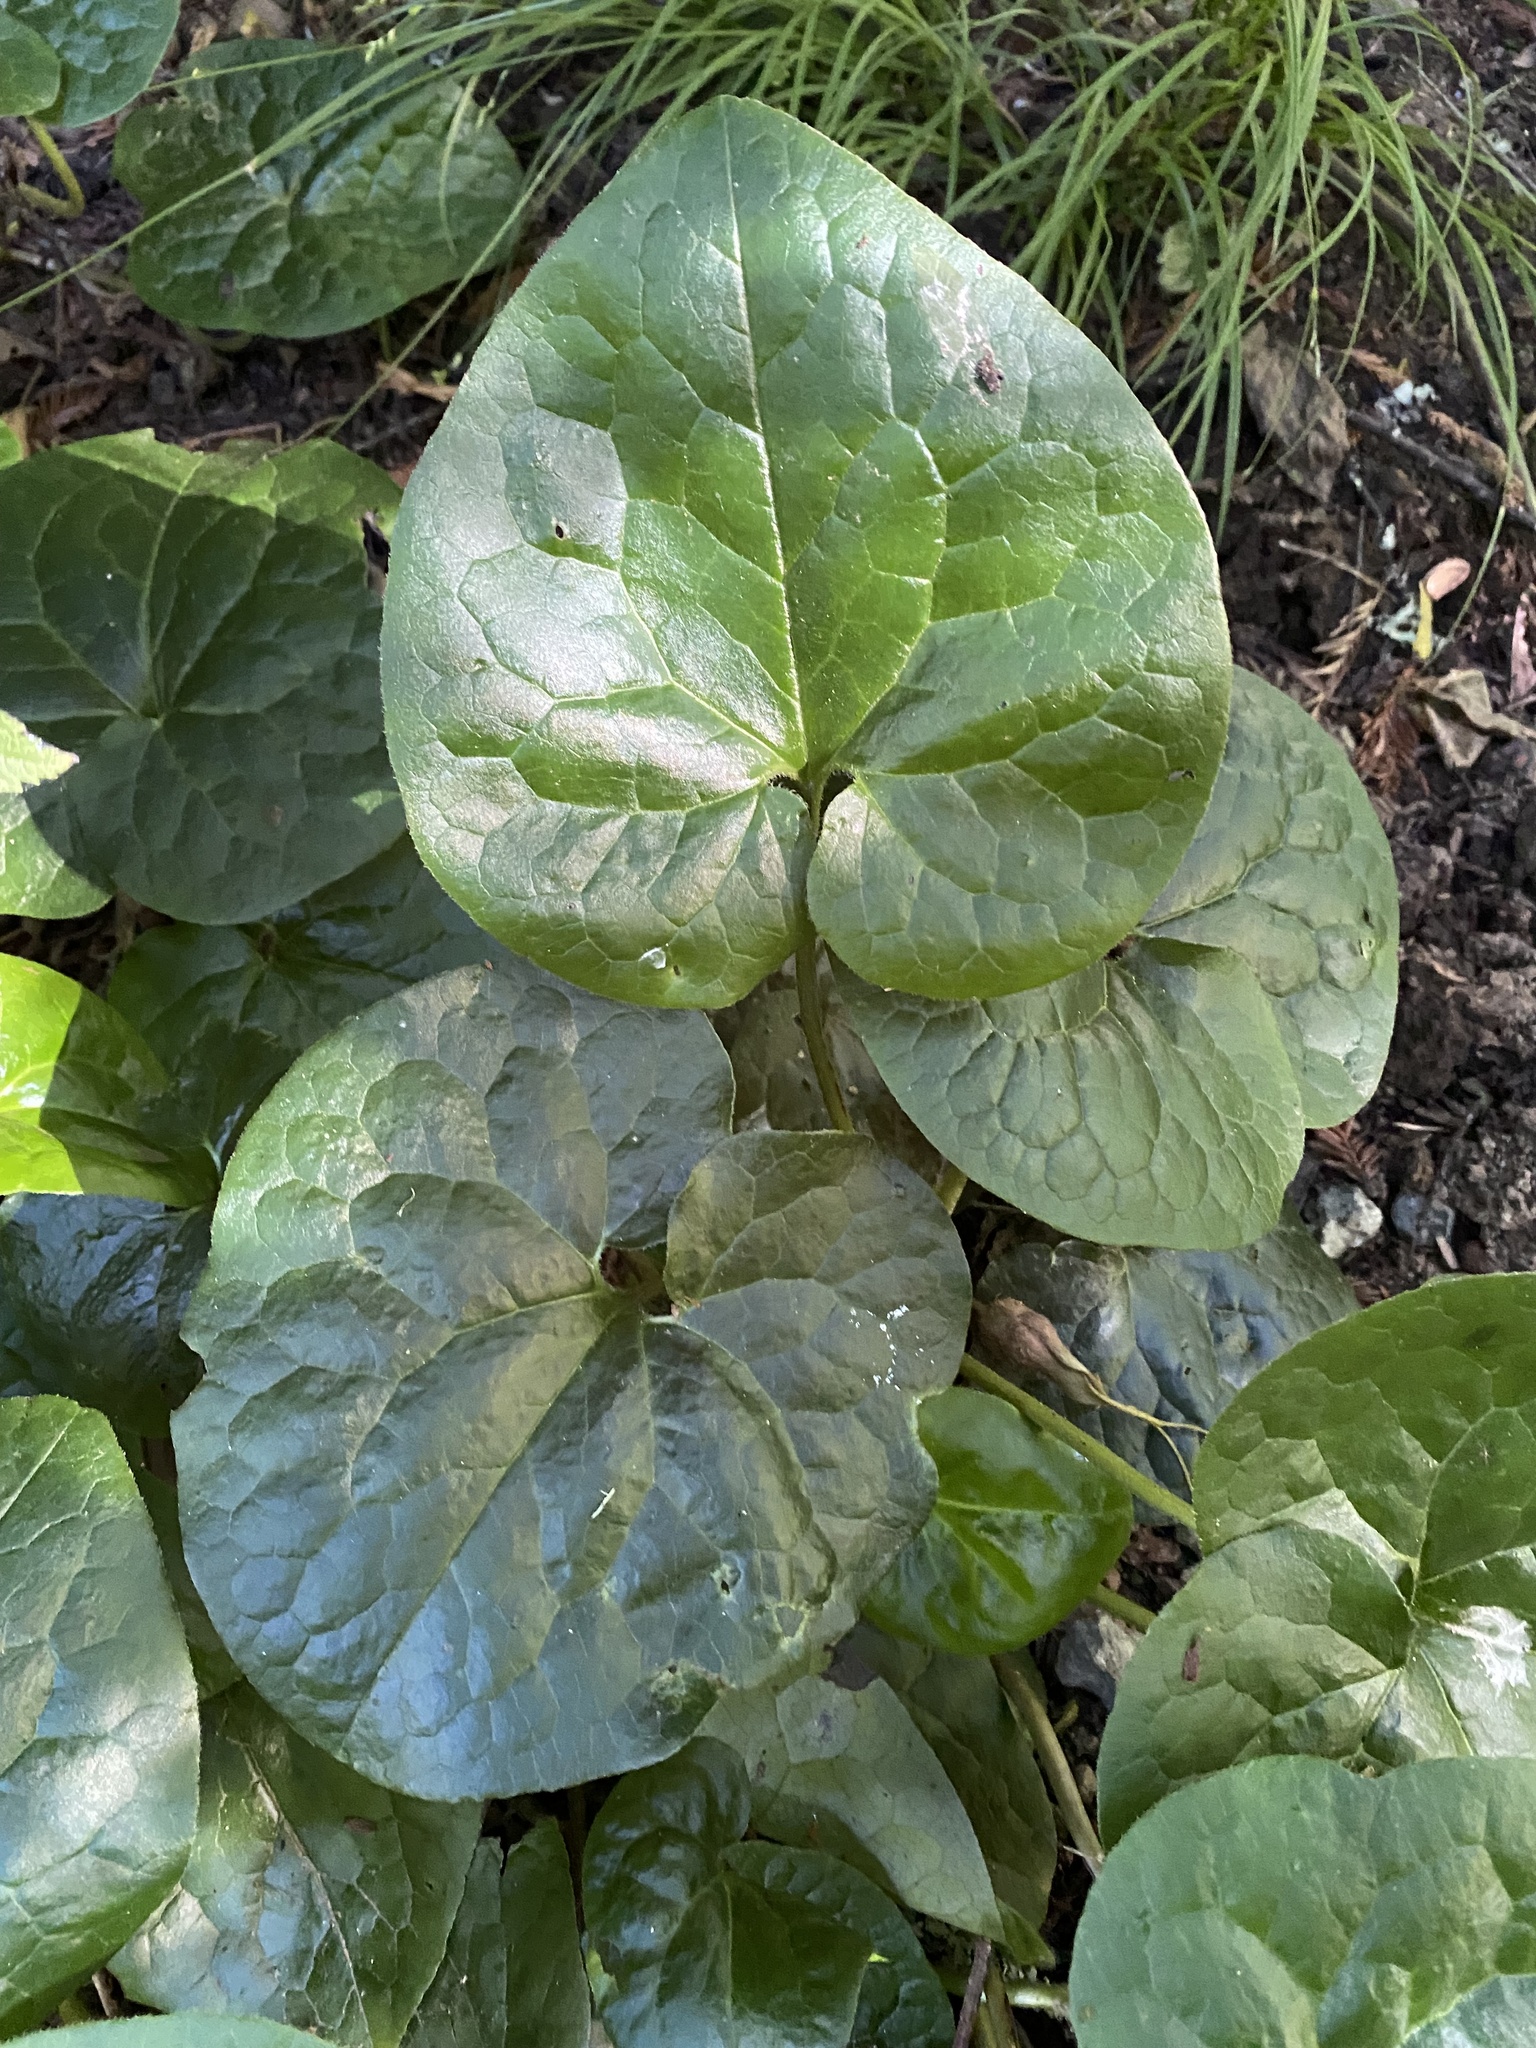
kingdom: Plantae
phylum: Tracheophyta
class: Magnoliopsida
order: Piperales
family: Aristolochiaceae
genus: Asarum
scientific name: Asarum caudatum
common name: Wild ginger
